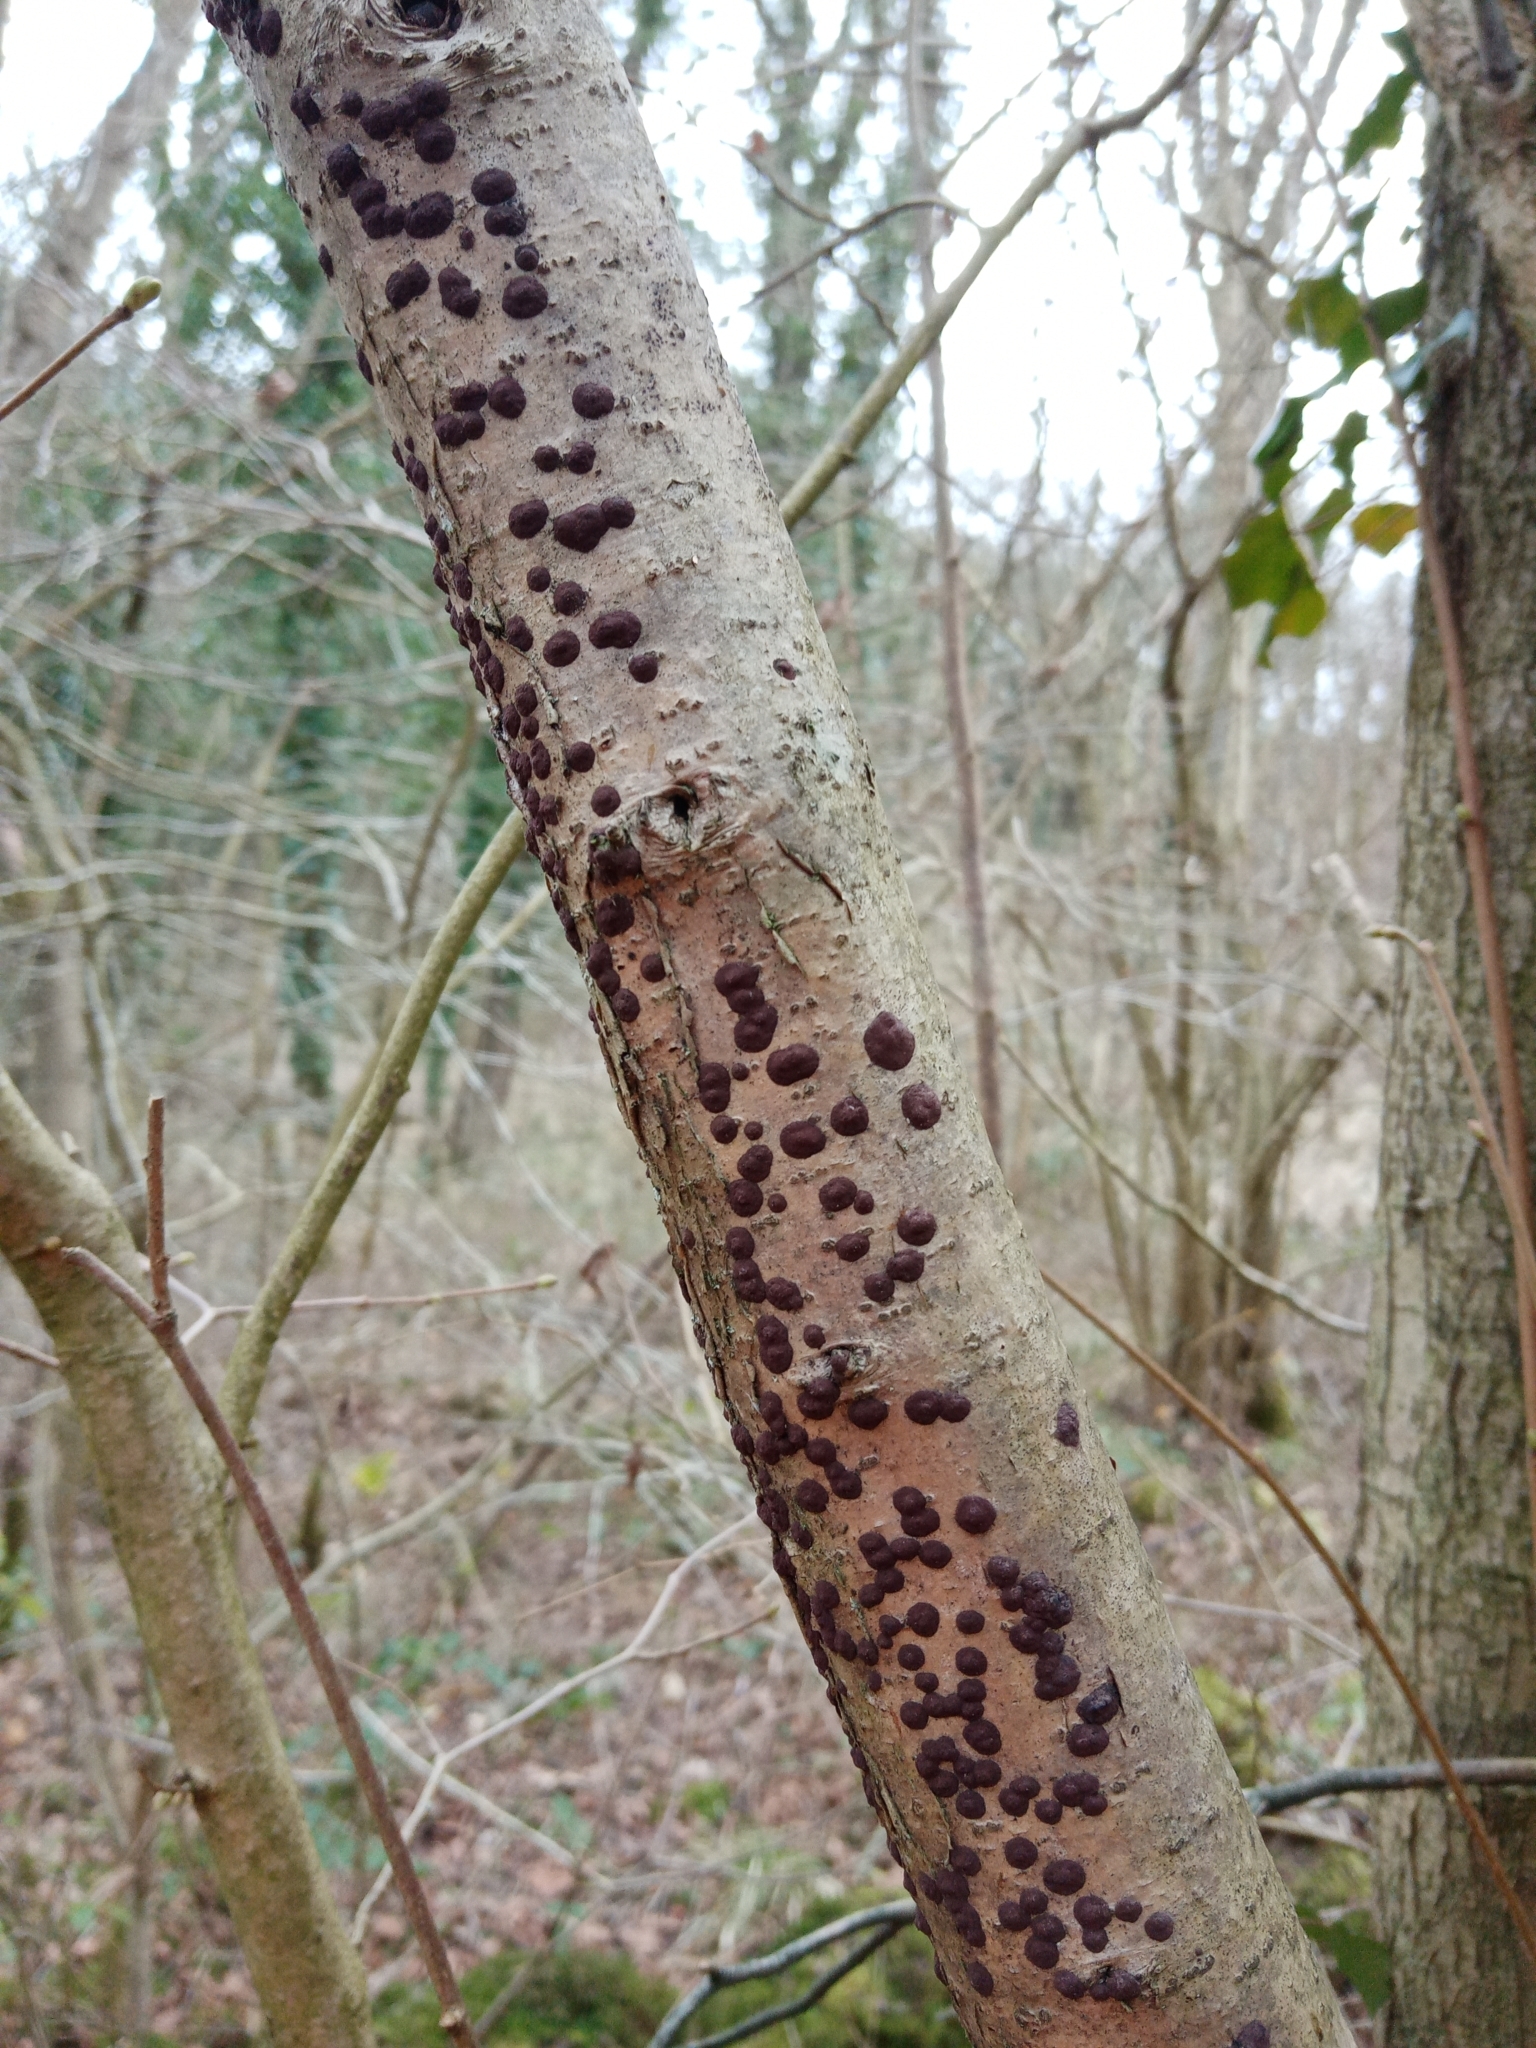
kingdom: Fungi
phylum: Ascomycota
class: Sordariomycetes
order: Xylariales
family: Hypoxylaceae
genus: Hypoxylon
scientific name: Hypoxylon fuscum
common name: Hazel woodwart
